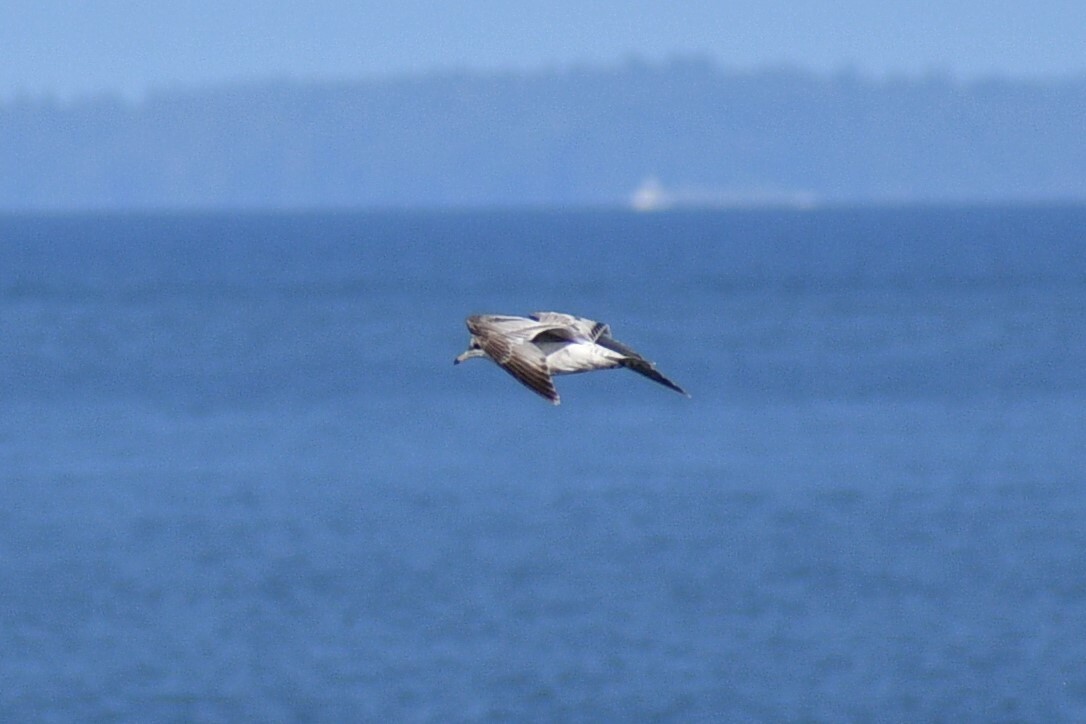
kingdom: Animalia
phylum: Chordata
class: Aves
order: Charadriiformes
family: Laridae
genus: Larus
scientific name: Larus brachyrhynchus
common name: Short-billed gull
